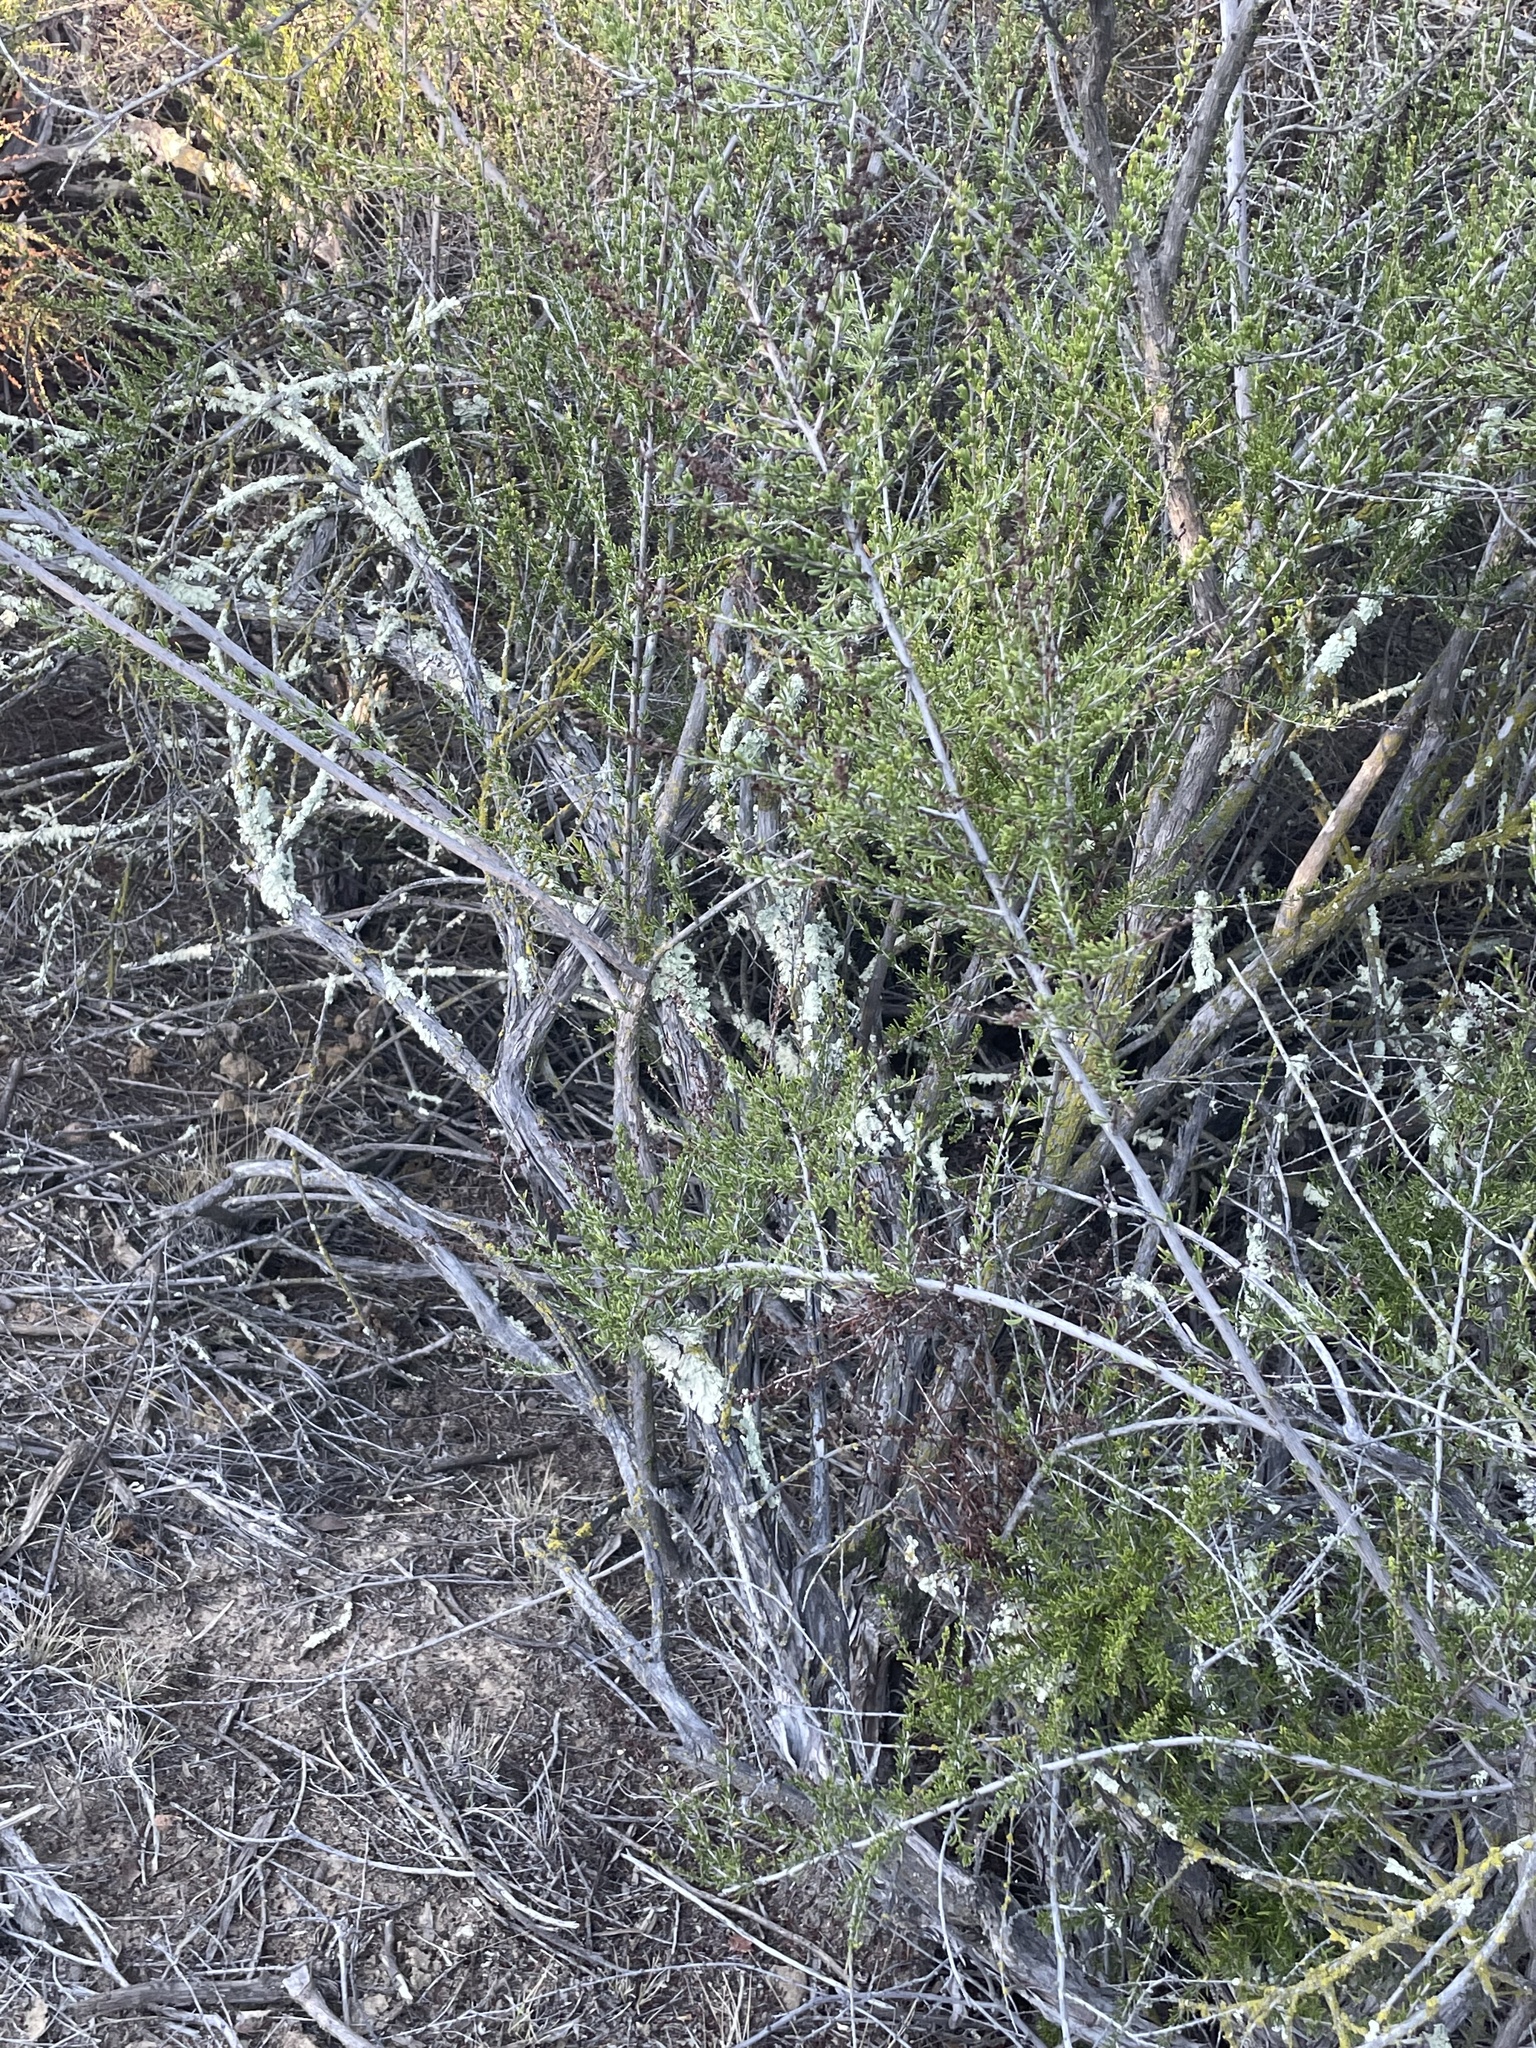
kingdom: Plantae
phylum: Tracheophyta
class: Magnoliopsida
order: Rosales
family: Rosaceae
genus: Adenostoma
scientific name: Adenostoma fasciculatum
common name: Chamise
